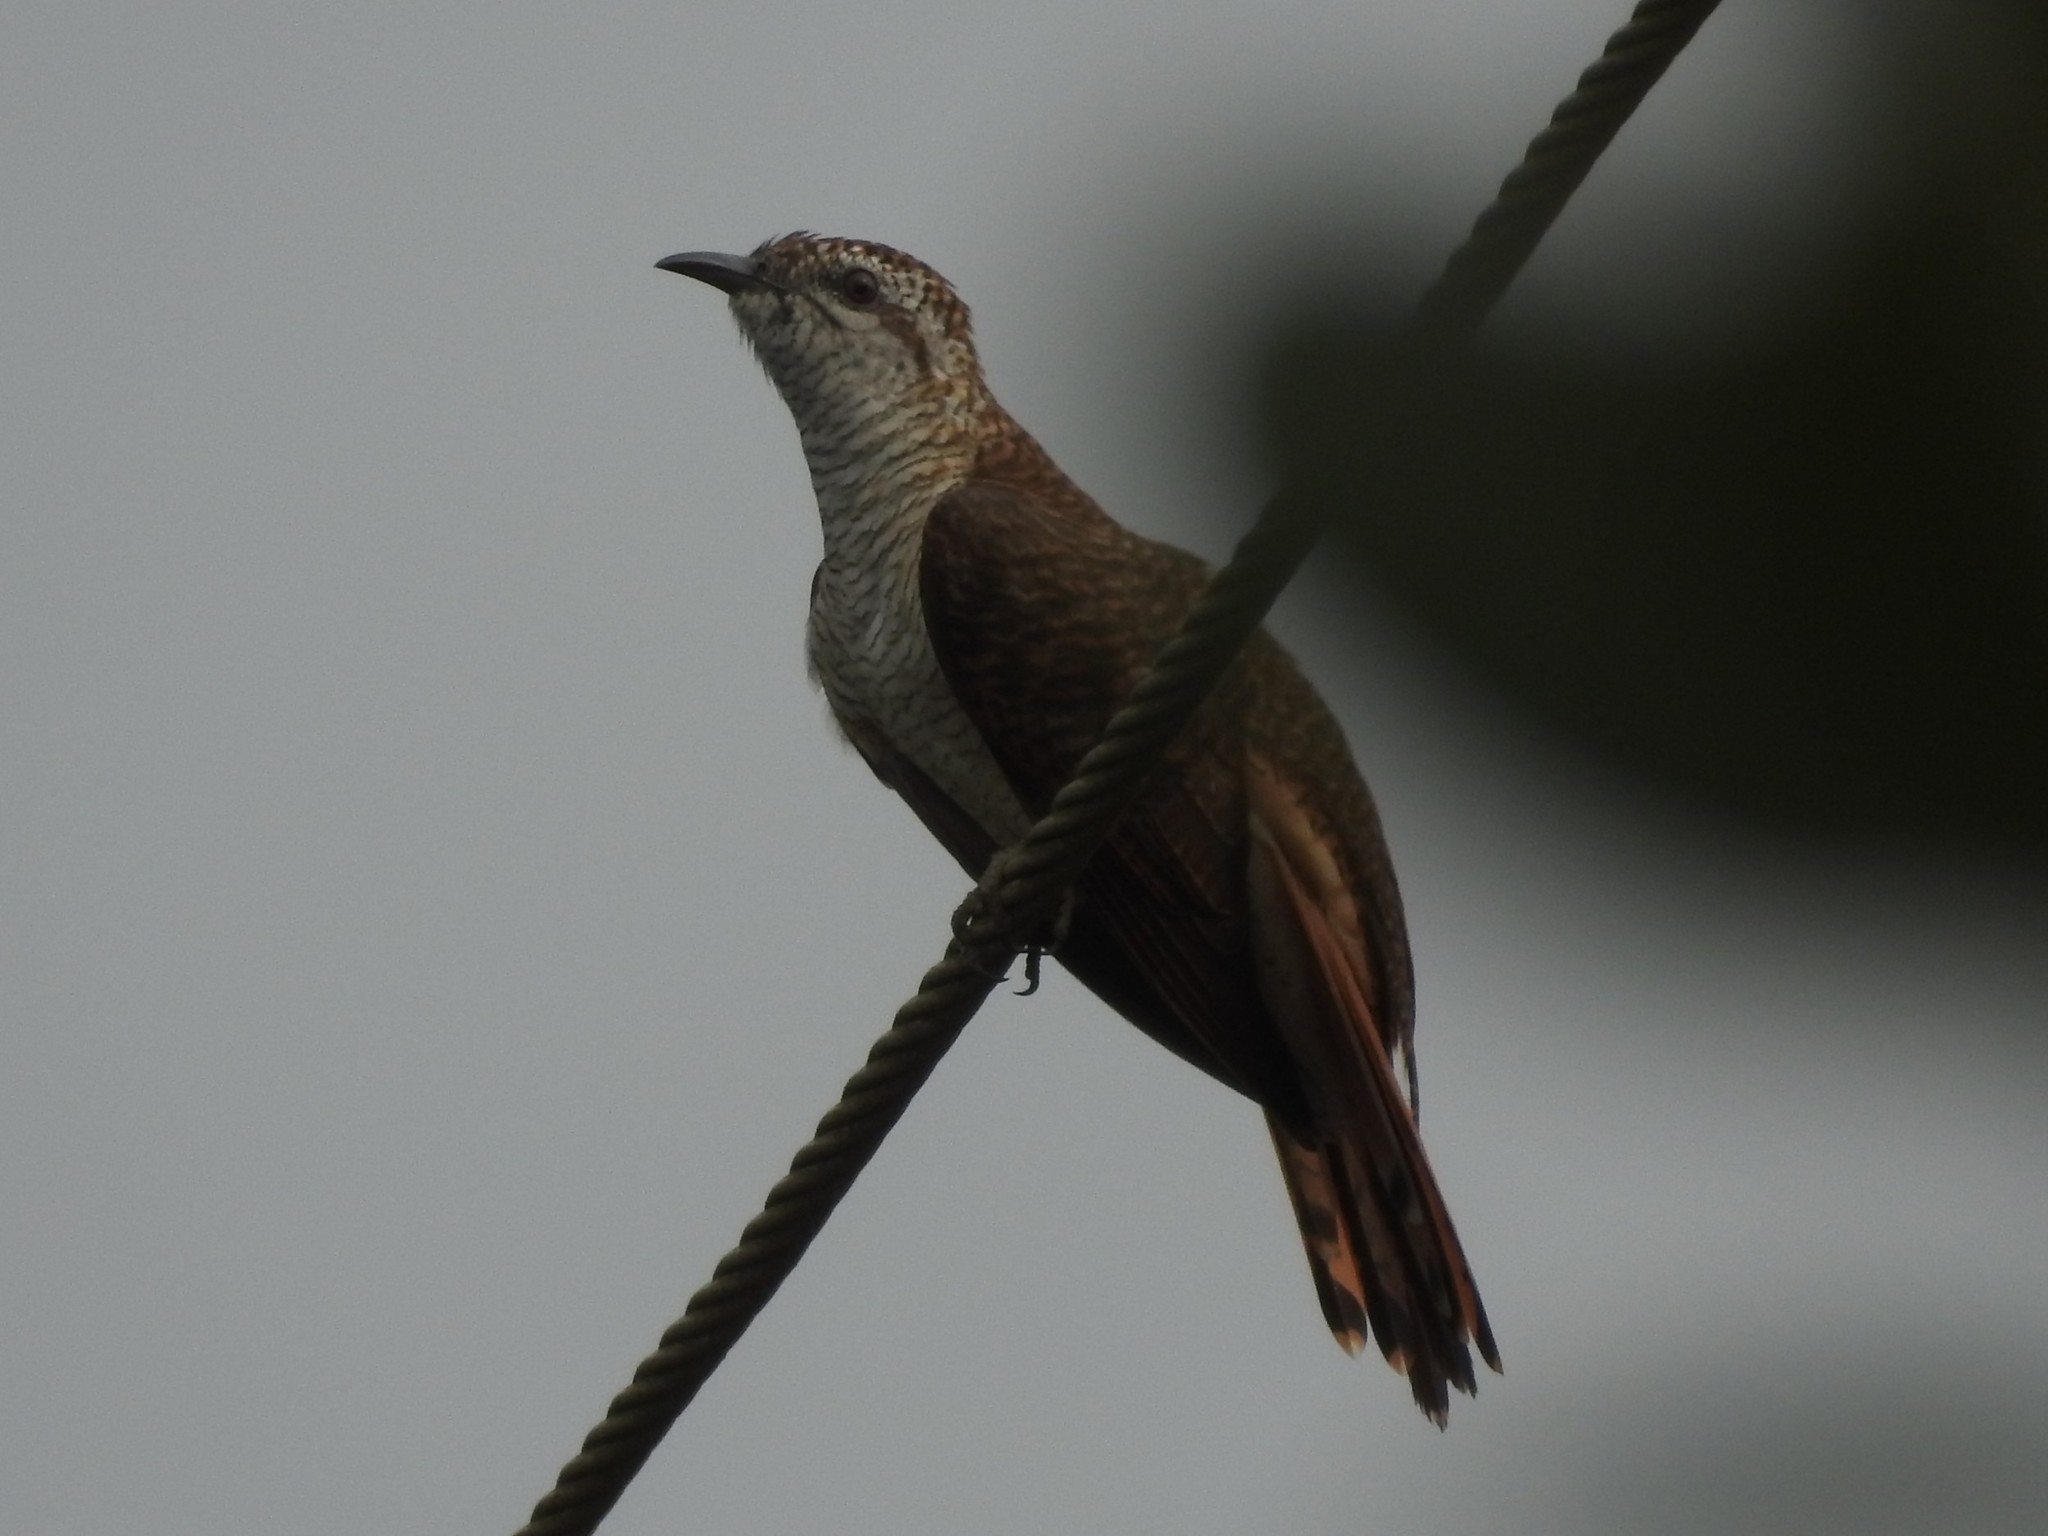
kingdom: Animalia
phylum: Chordata
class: Aves
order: Cuculiformes
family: Cuculidae
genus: Cacomantis
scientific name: Cacomantis sonneratii
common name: Banded bay cuckoo
